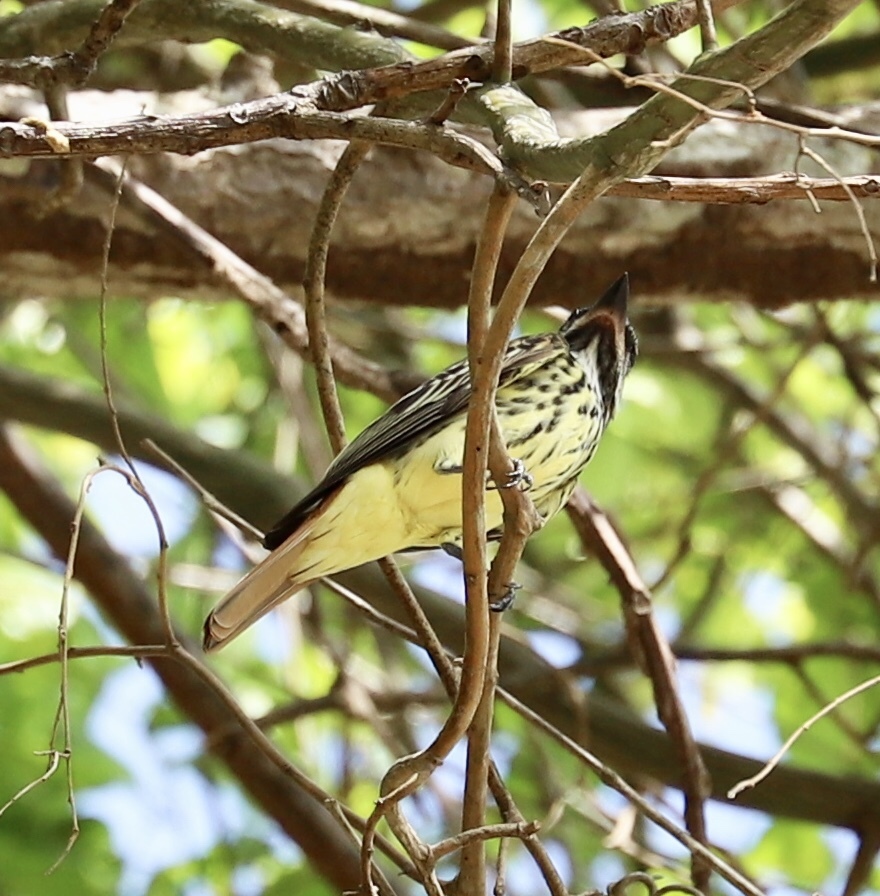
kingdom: Animalia
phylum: Chordata
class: Aves
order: Passeriformes
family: Tyrannidae
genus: Myiodynastes
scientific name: Myiodynastes luteiventris
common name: Sulphur-bellied flycatcher
